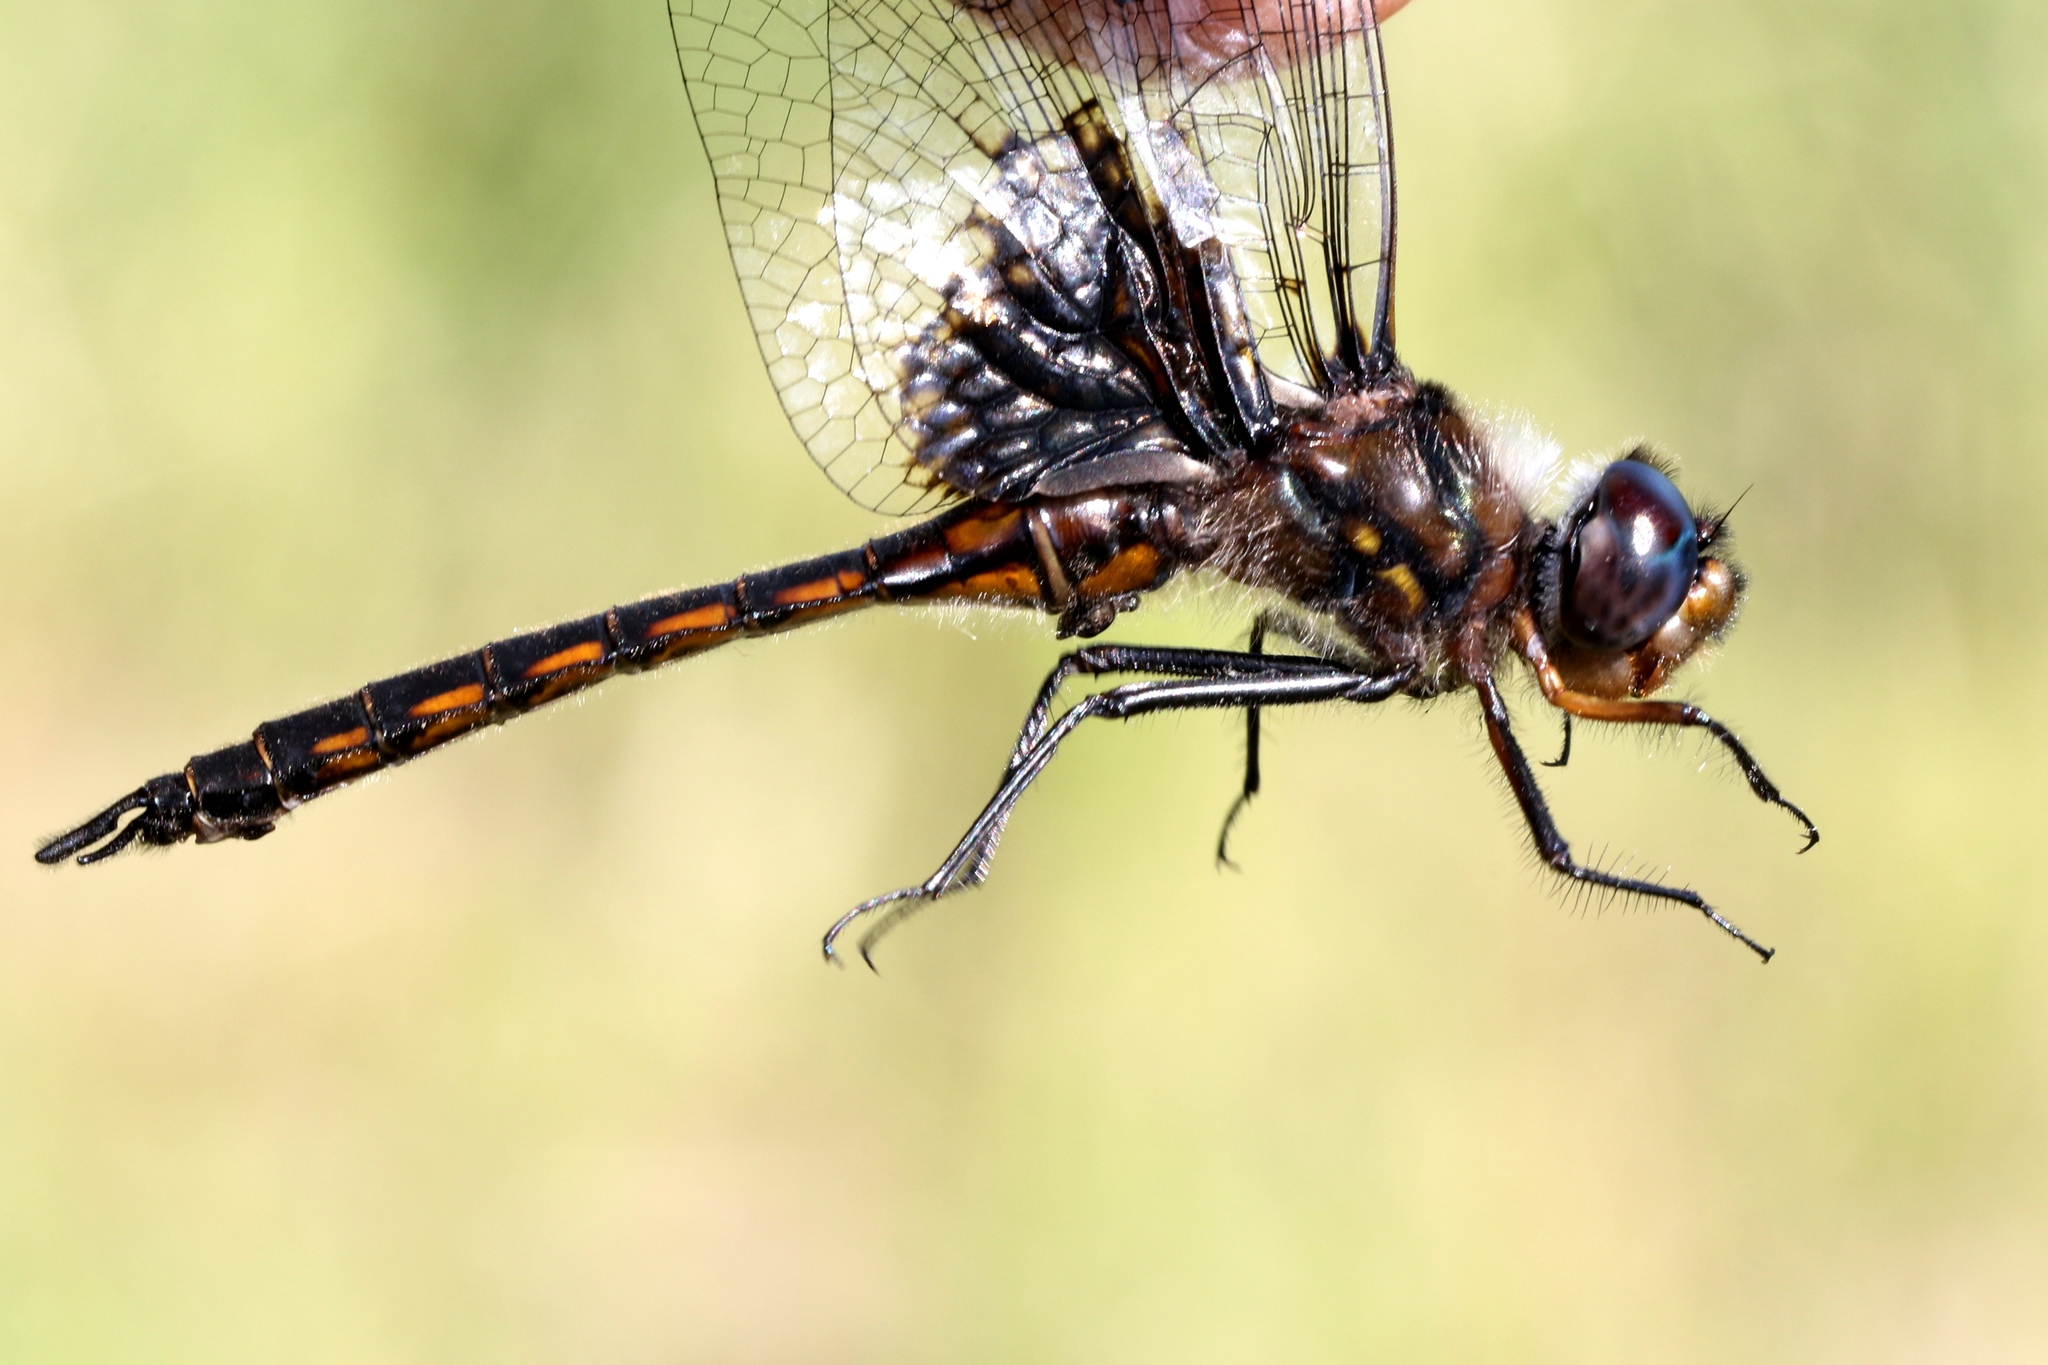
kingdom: Animalia
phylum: Arthropoda
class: Insecta
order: Odonata
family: Corduliidae
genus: Epitheca
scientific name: Epitheca cynosura
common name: Common baskettail
